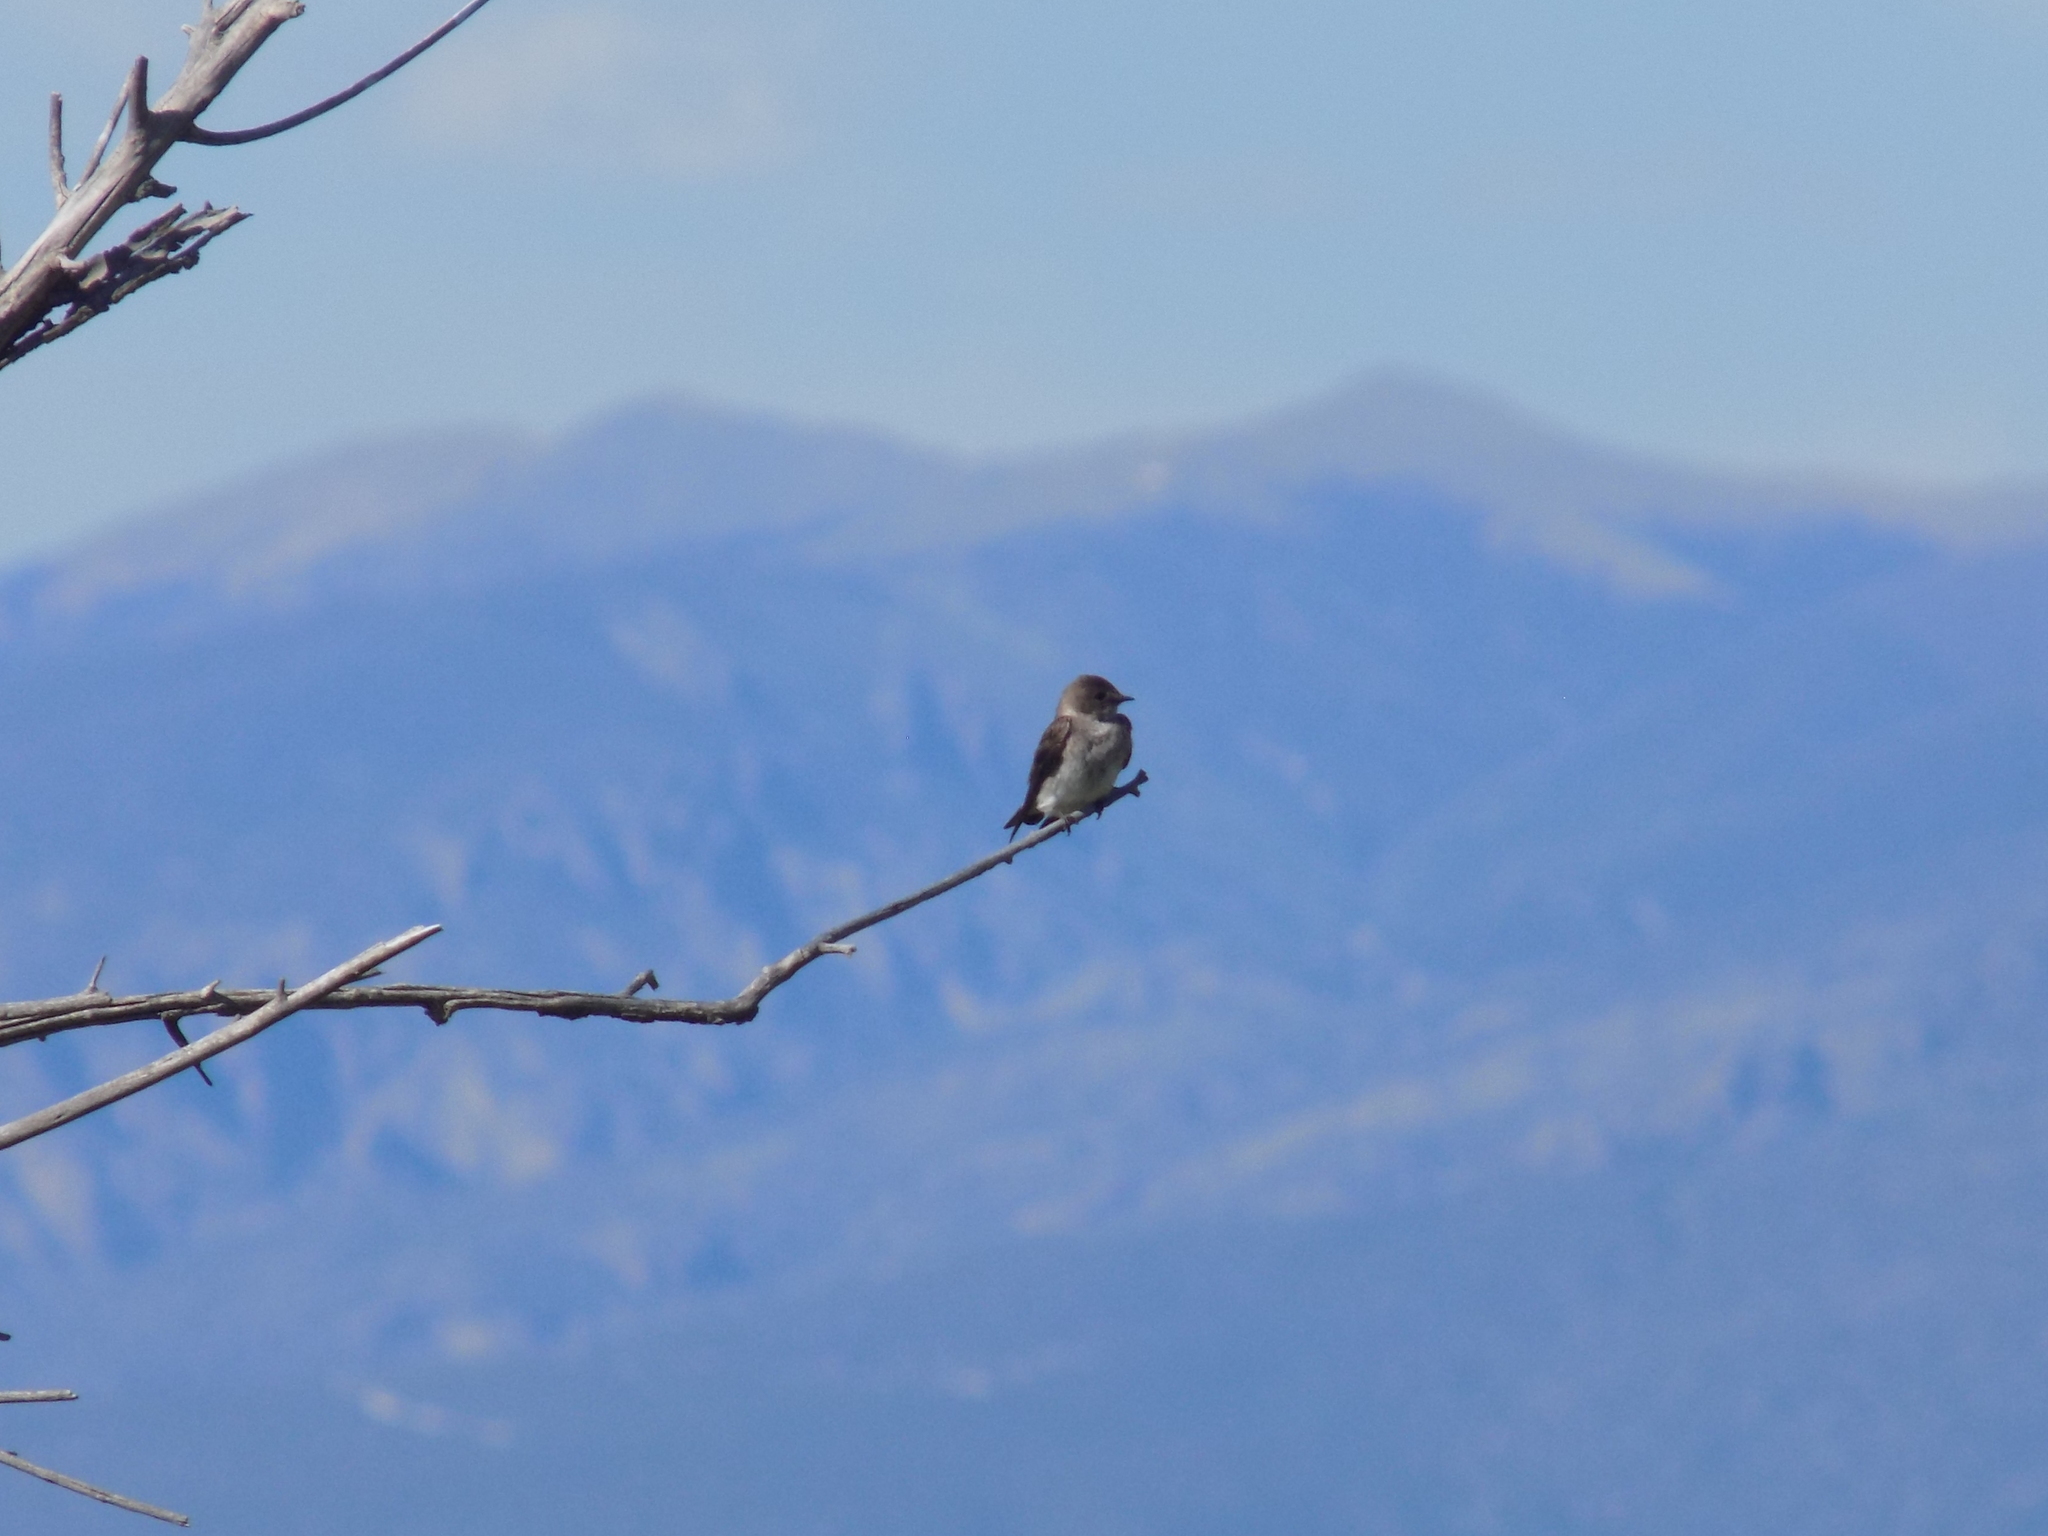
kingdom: Animalia
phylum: Chordata
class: Aves
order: Passeriformes
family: Hirundinidae
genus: Stelgidopteryx
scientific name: Stelgidopteryx serripennis
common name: Northern rough-winged swallow
